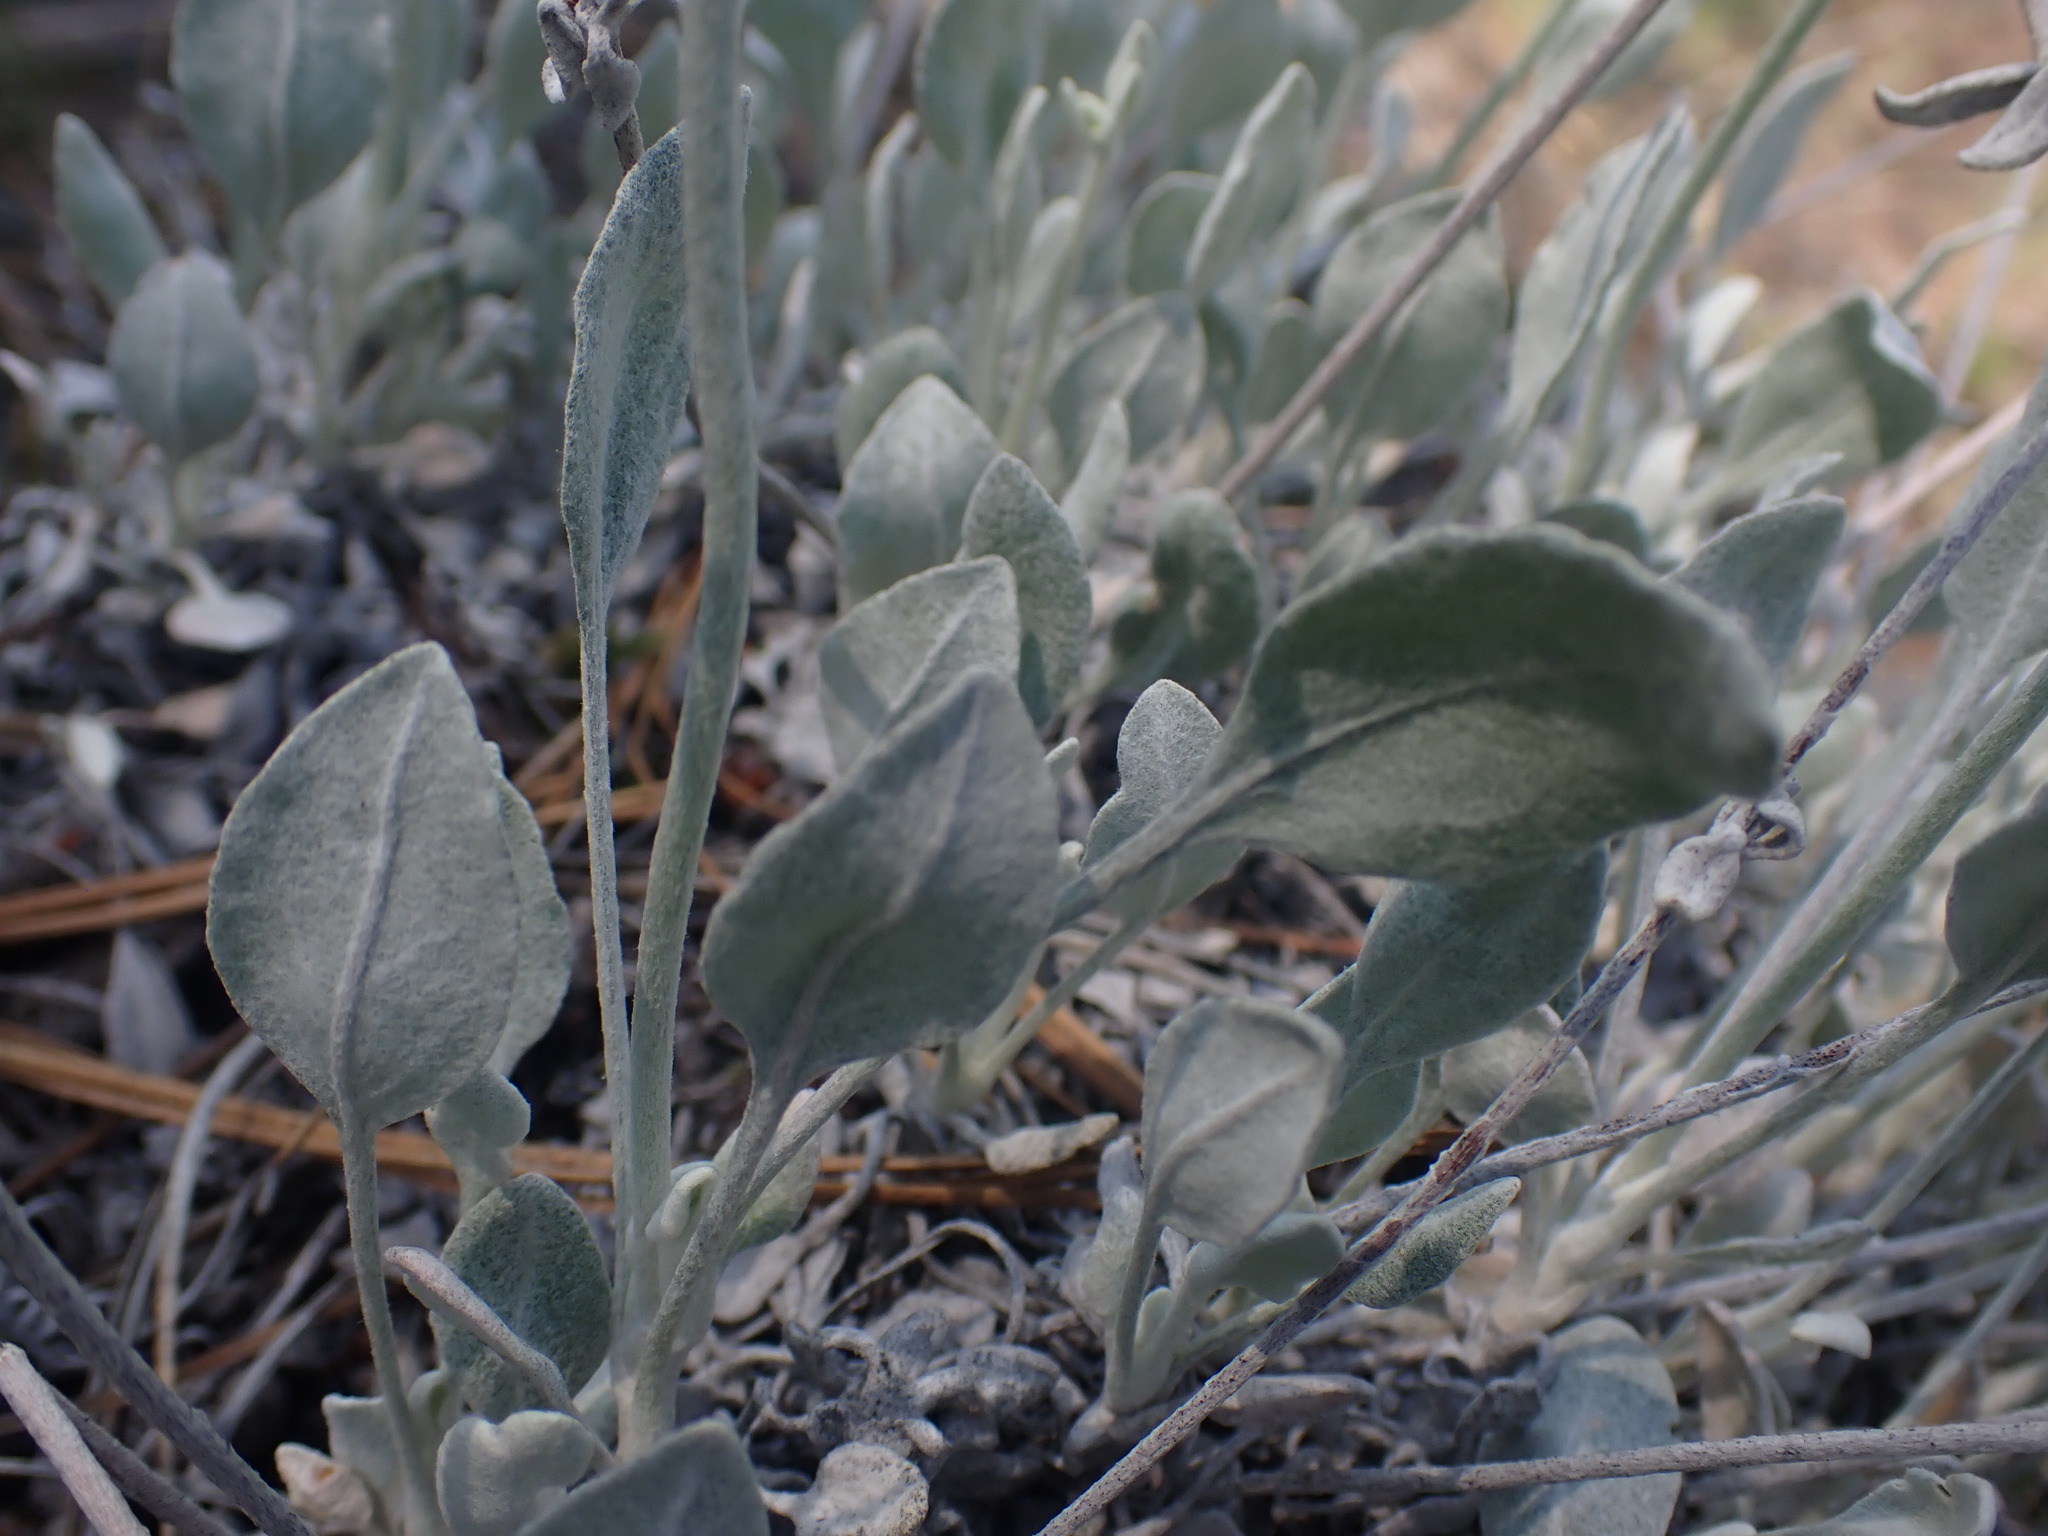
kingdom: Plantae
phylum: Tracheophyta
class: Magnoliopsida
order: Caryophyllales
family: Polygonaceae
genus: Eriogonum
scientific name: Eriogonum niveum
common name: Snow wild buckwheat
